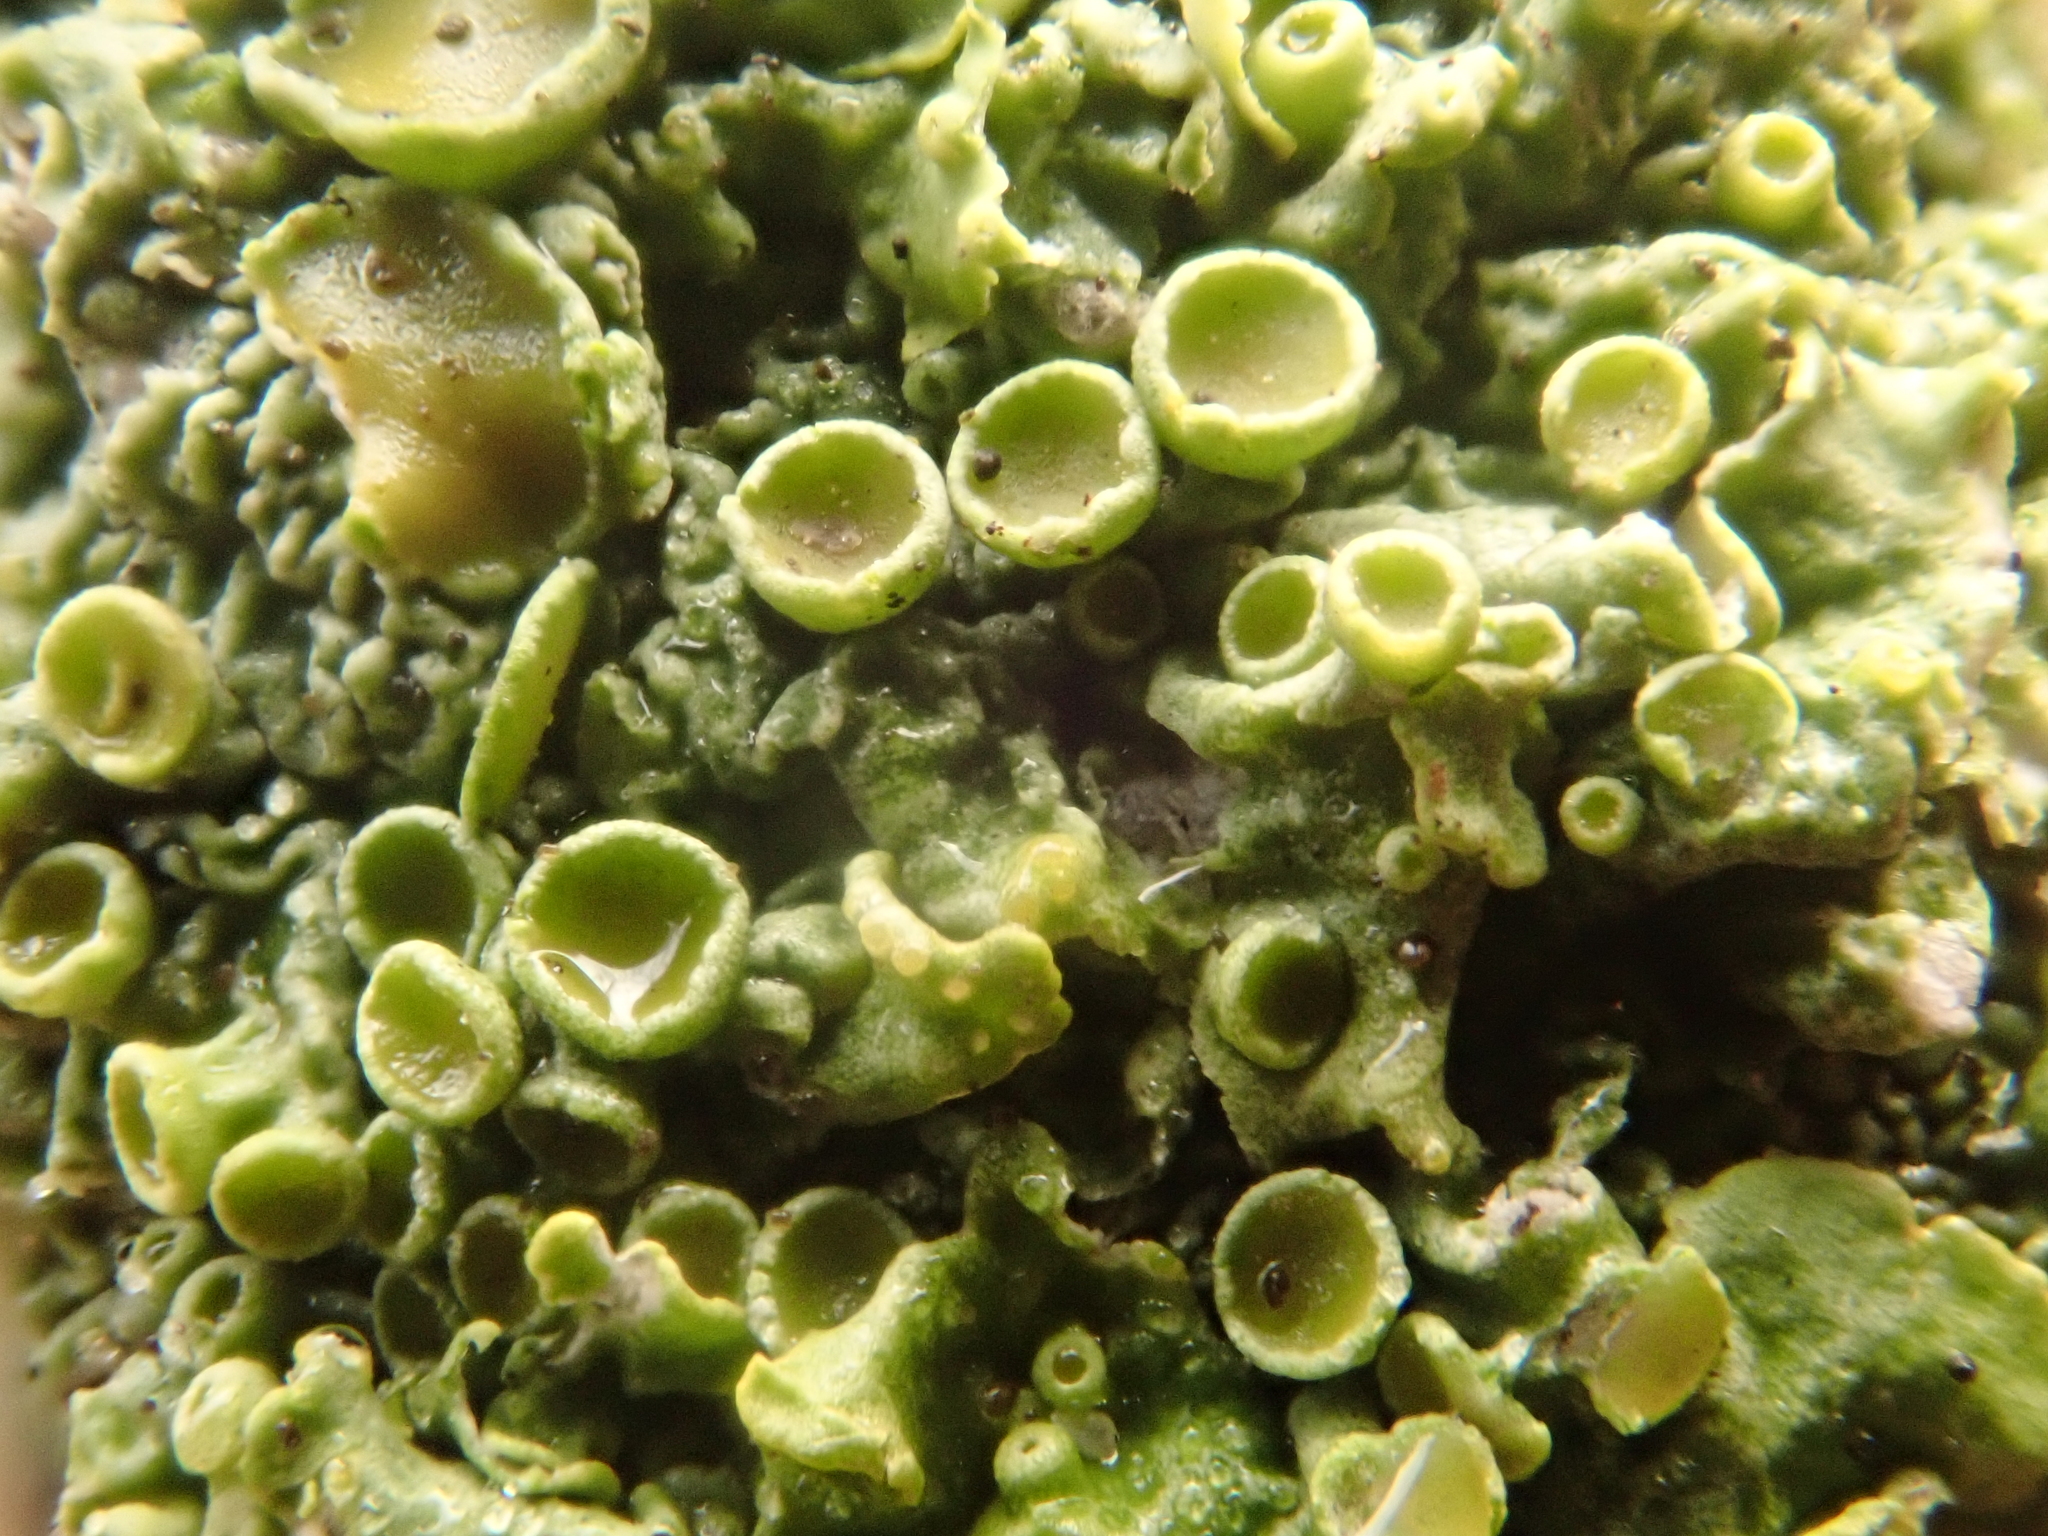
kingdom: Fungi
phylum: Ascomycota
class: Lecanoromycetes
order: Teloschistales
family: Teloschistaceae
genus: Xanthoria
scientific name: Xanthoria parietina
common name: Common orange lichen
